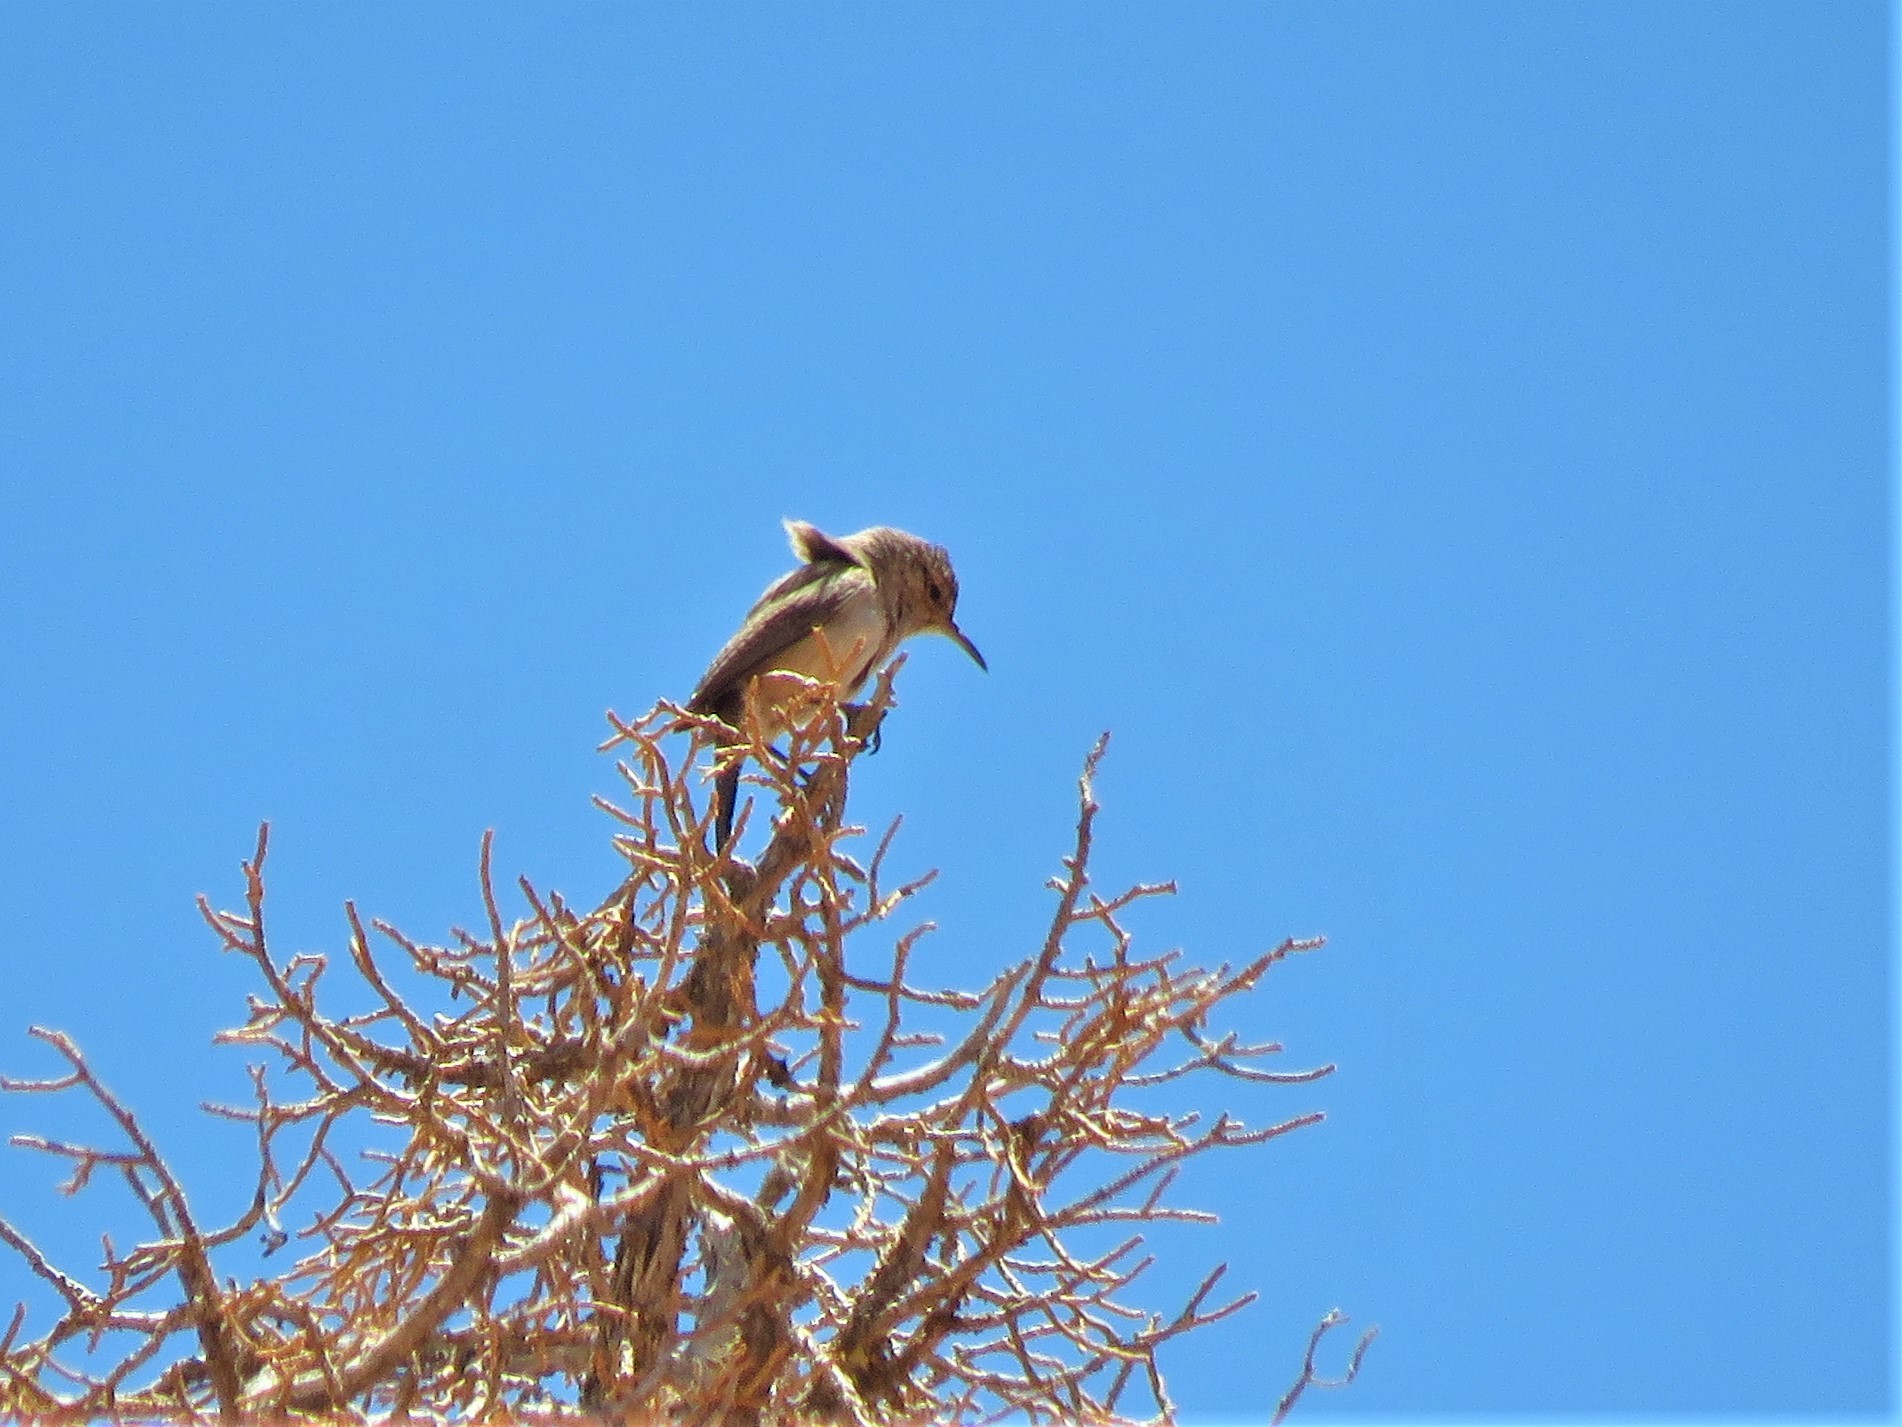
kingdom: Animalia
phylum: Chordata
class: Aves
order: Passeriformes
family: Troglodytidae
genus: Salpinctes
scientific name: Salpinctes obsoletus
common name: Rock wren
